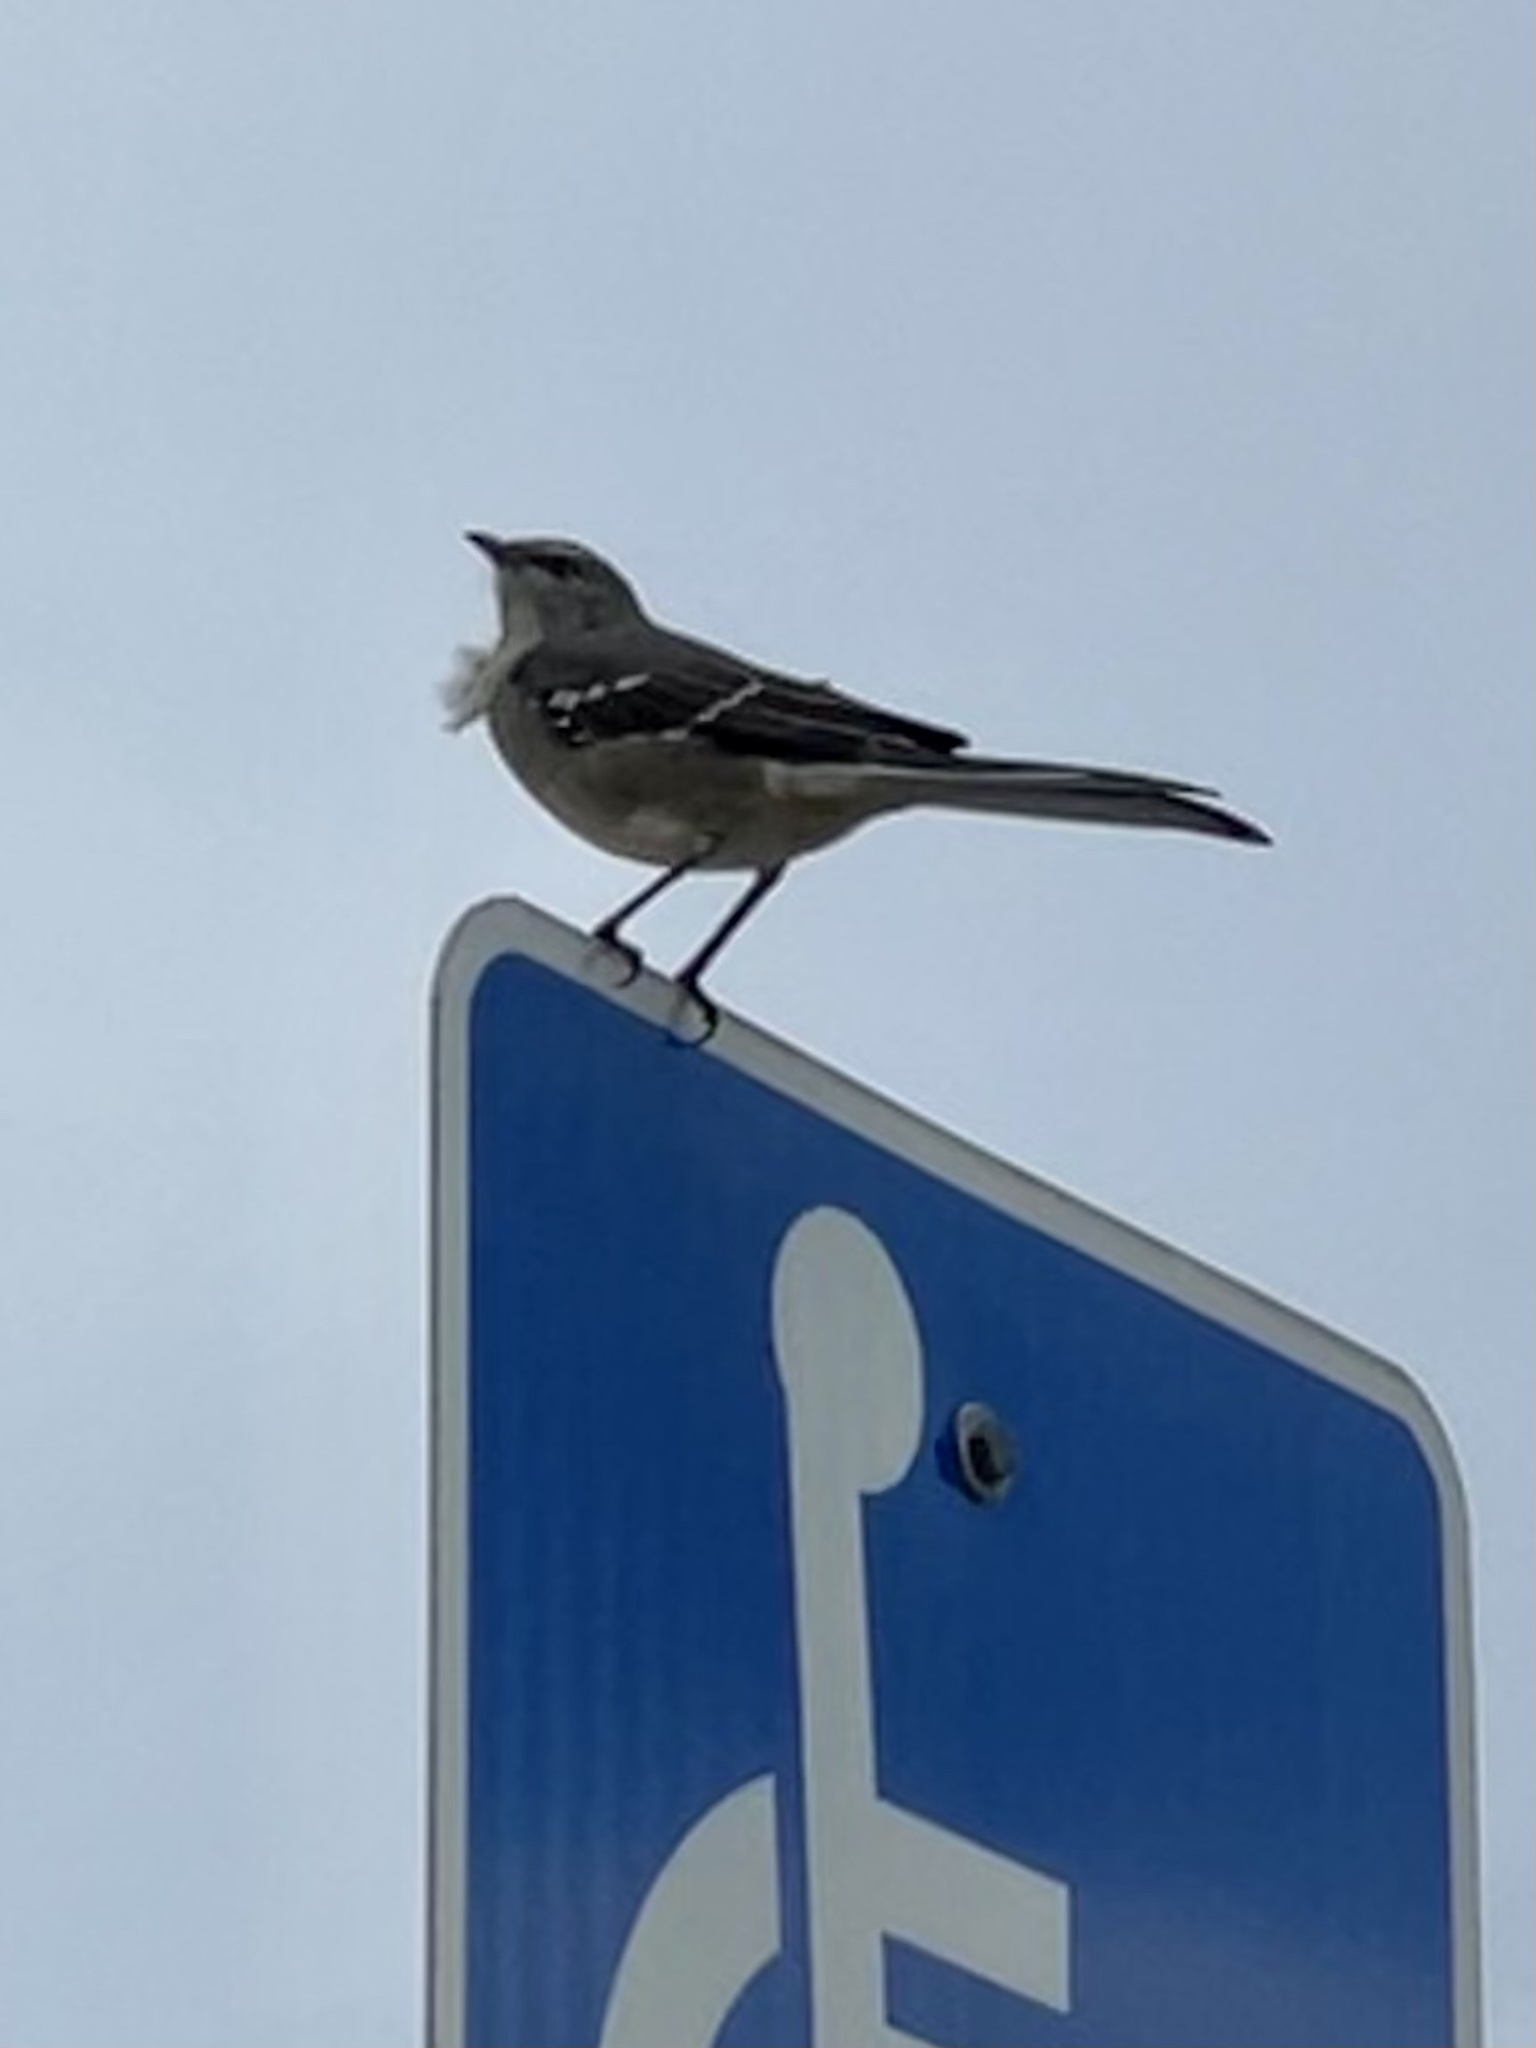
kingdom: Animalia
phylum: Chordata
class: Aves
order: Passeriformes
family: Mimidae
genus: Mimus
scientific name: Mimus polyglottos
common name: Northern mockingbird
